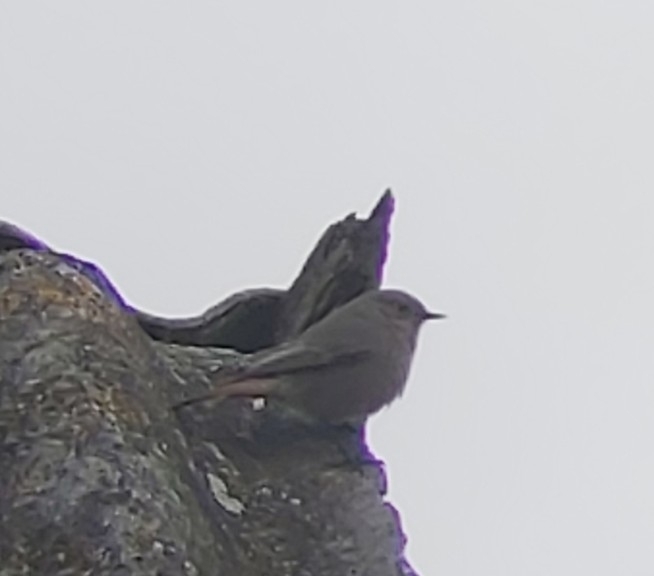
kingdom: Animalia
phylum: Chordata
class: Aves
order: Passeriformes
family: Muscicapidae
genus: Phoenicurus
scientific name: Phoenicurus ochruros
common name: Black redstart
